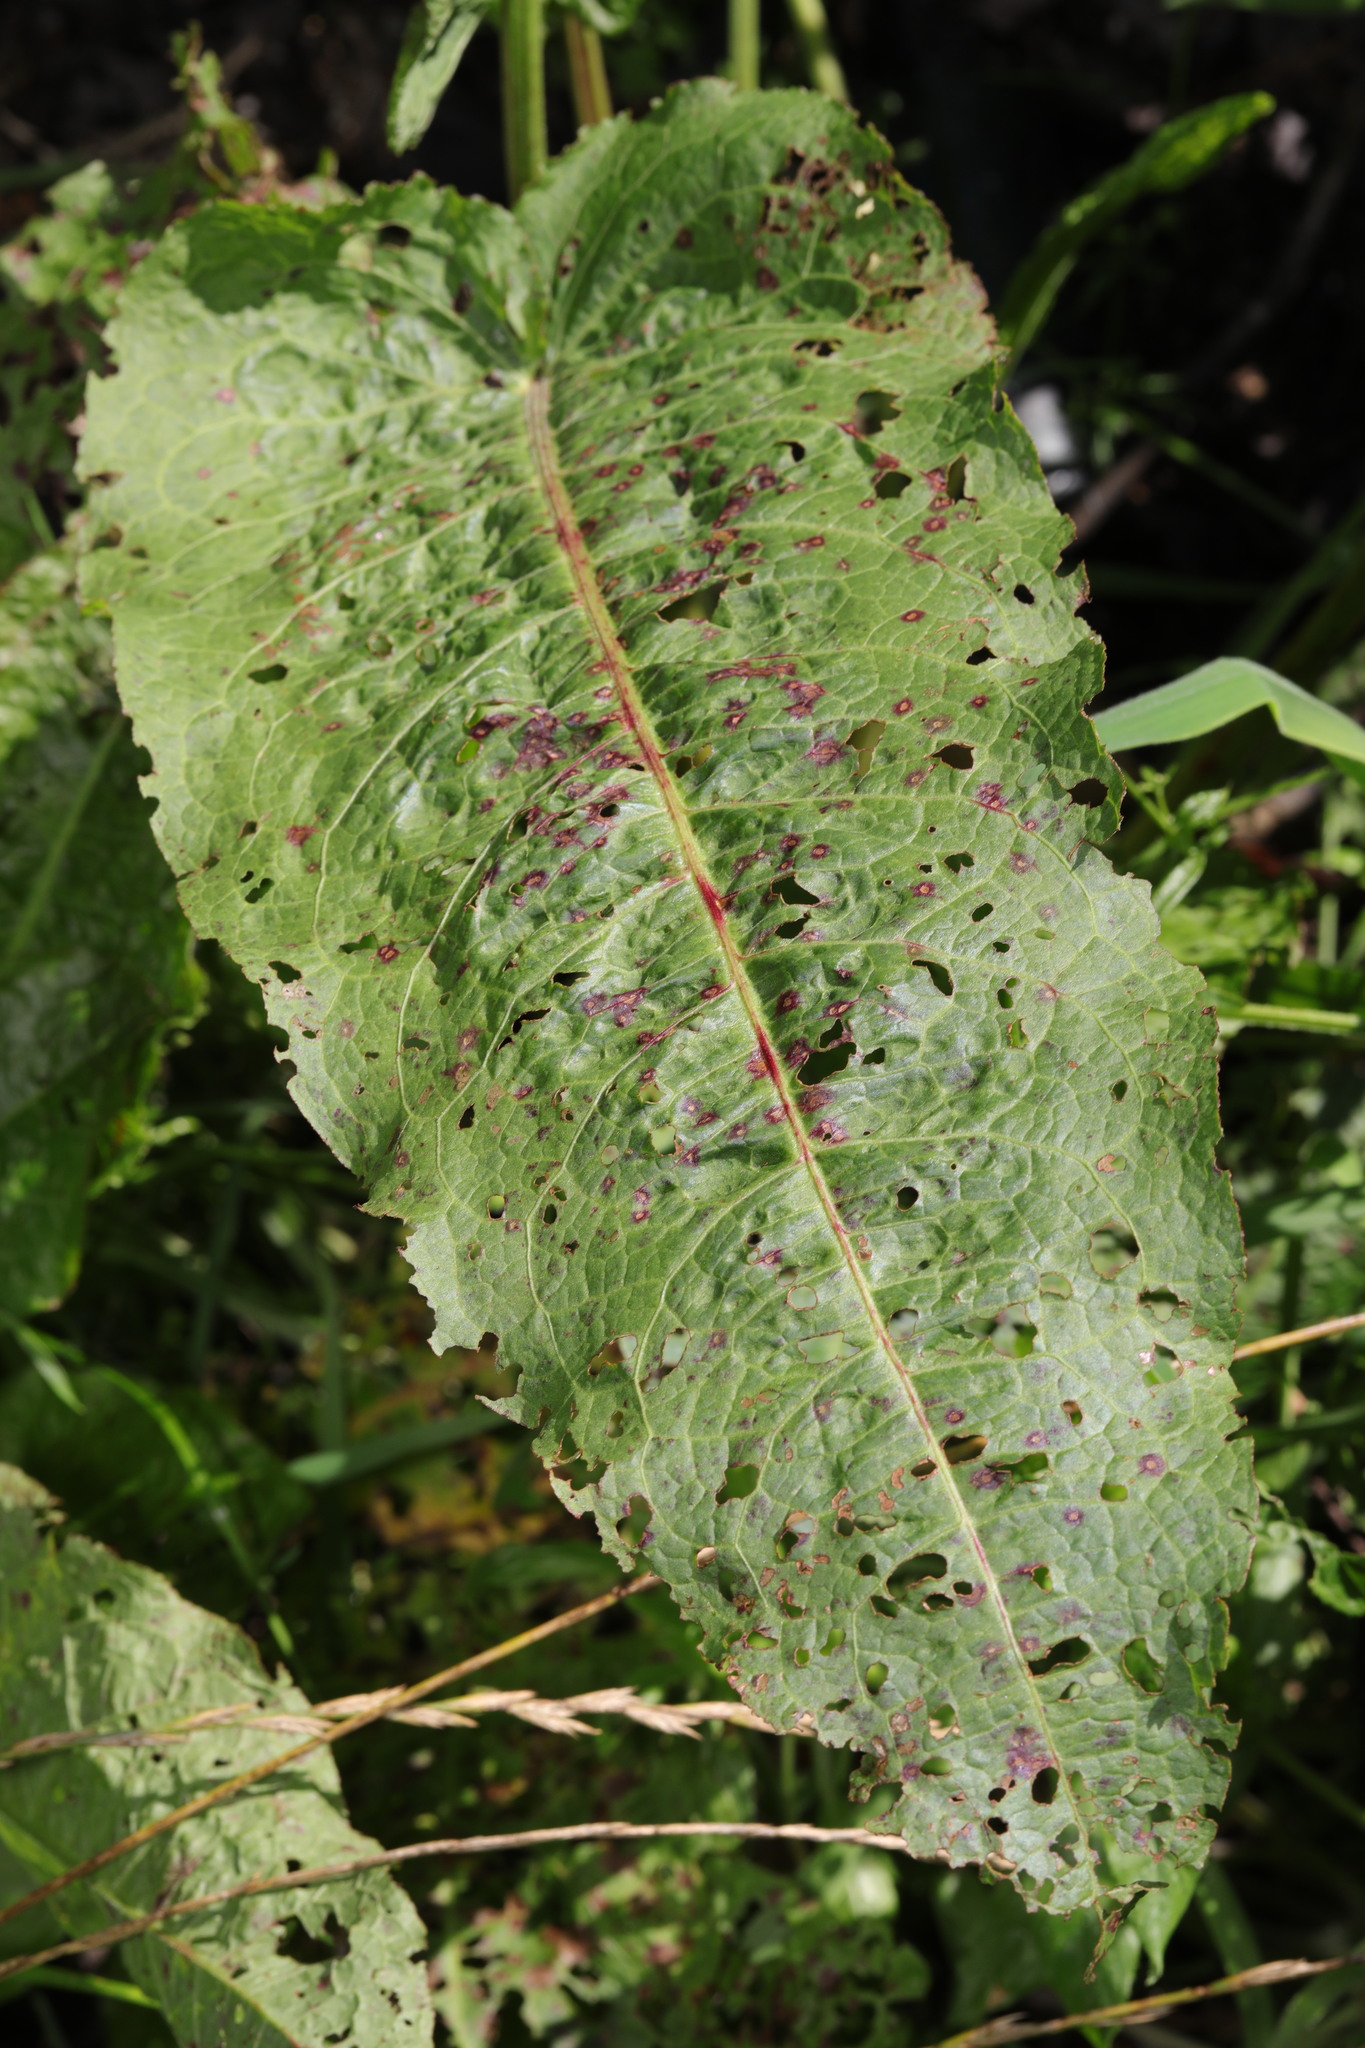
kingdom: Plantae
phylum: Tracheophyta
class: Magnoliopsida
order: Caryophyllales
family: Polygonaceae
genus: Rumex
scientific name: Rumex obtusifolius
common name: Bitter dock
